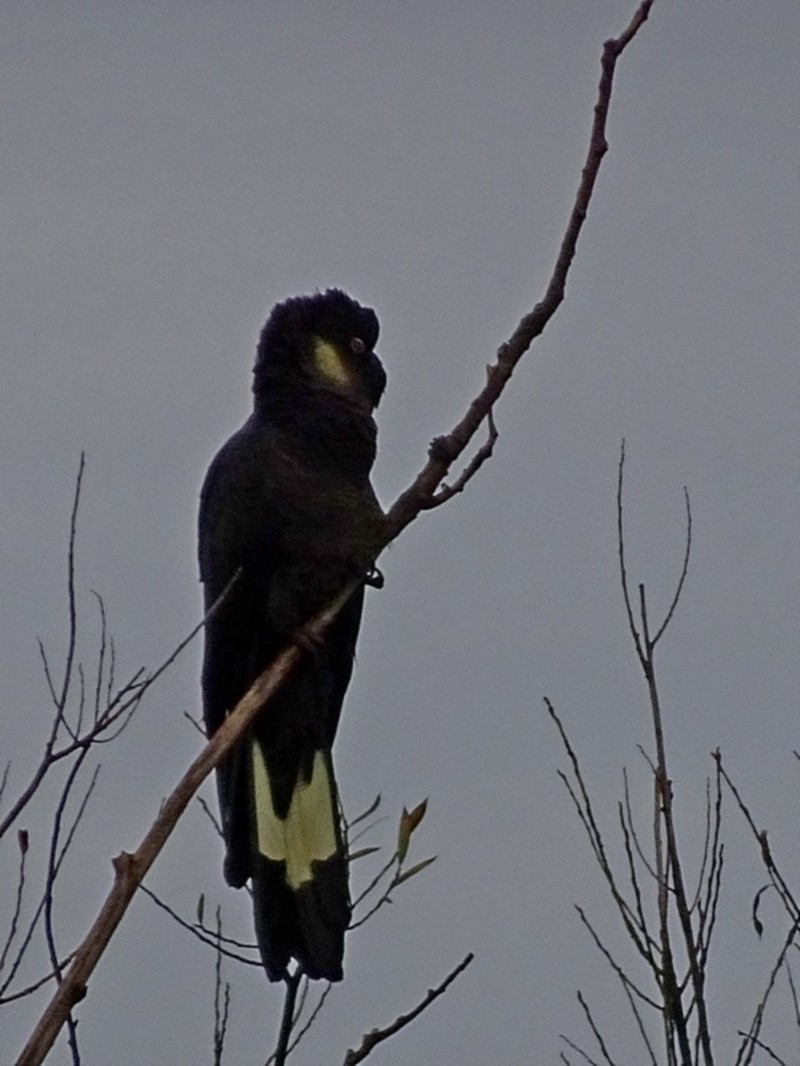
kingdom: Animalia
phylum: Chordata
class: Aves
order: Psittaciformes
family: Cacatuidae
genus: Zanda
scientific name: Zanda funerea
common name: Yellow-tailed black-cockatoo
